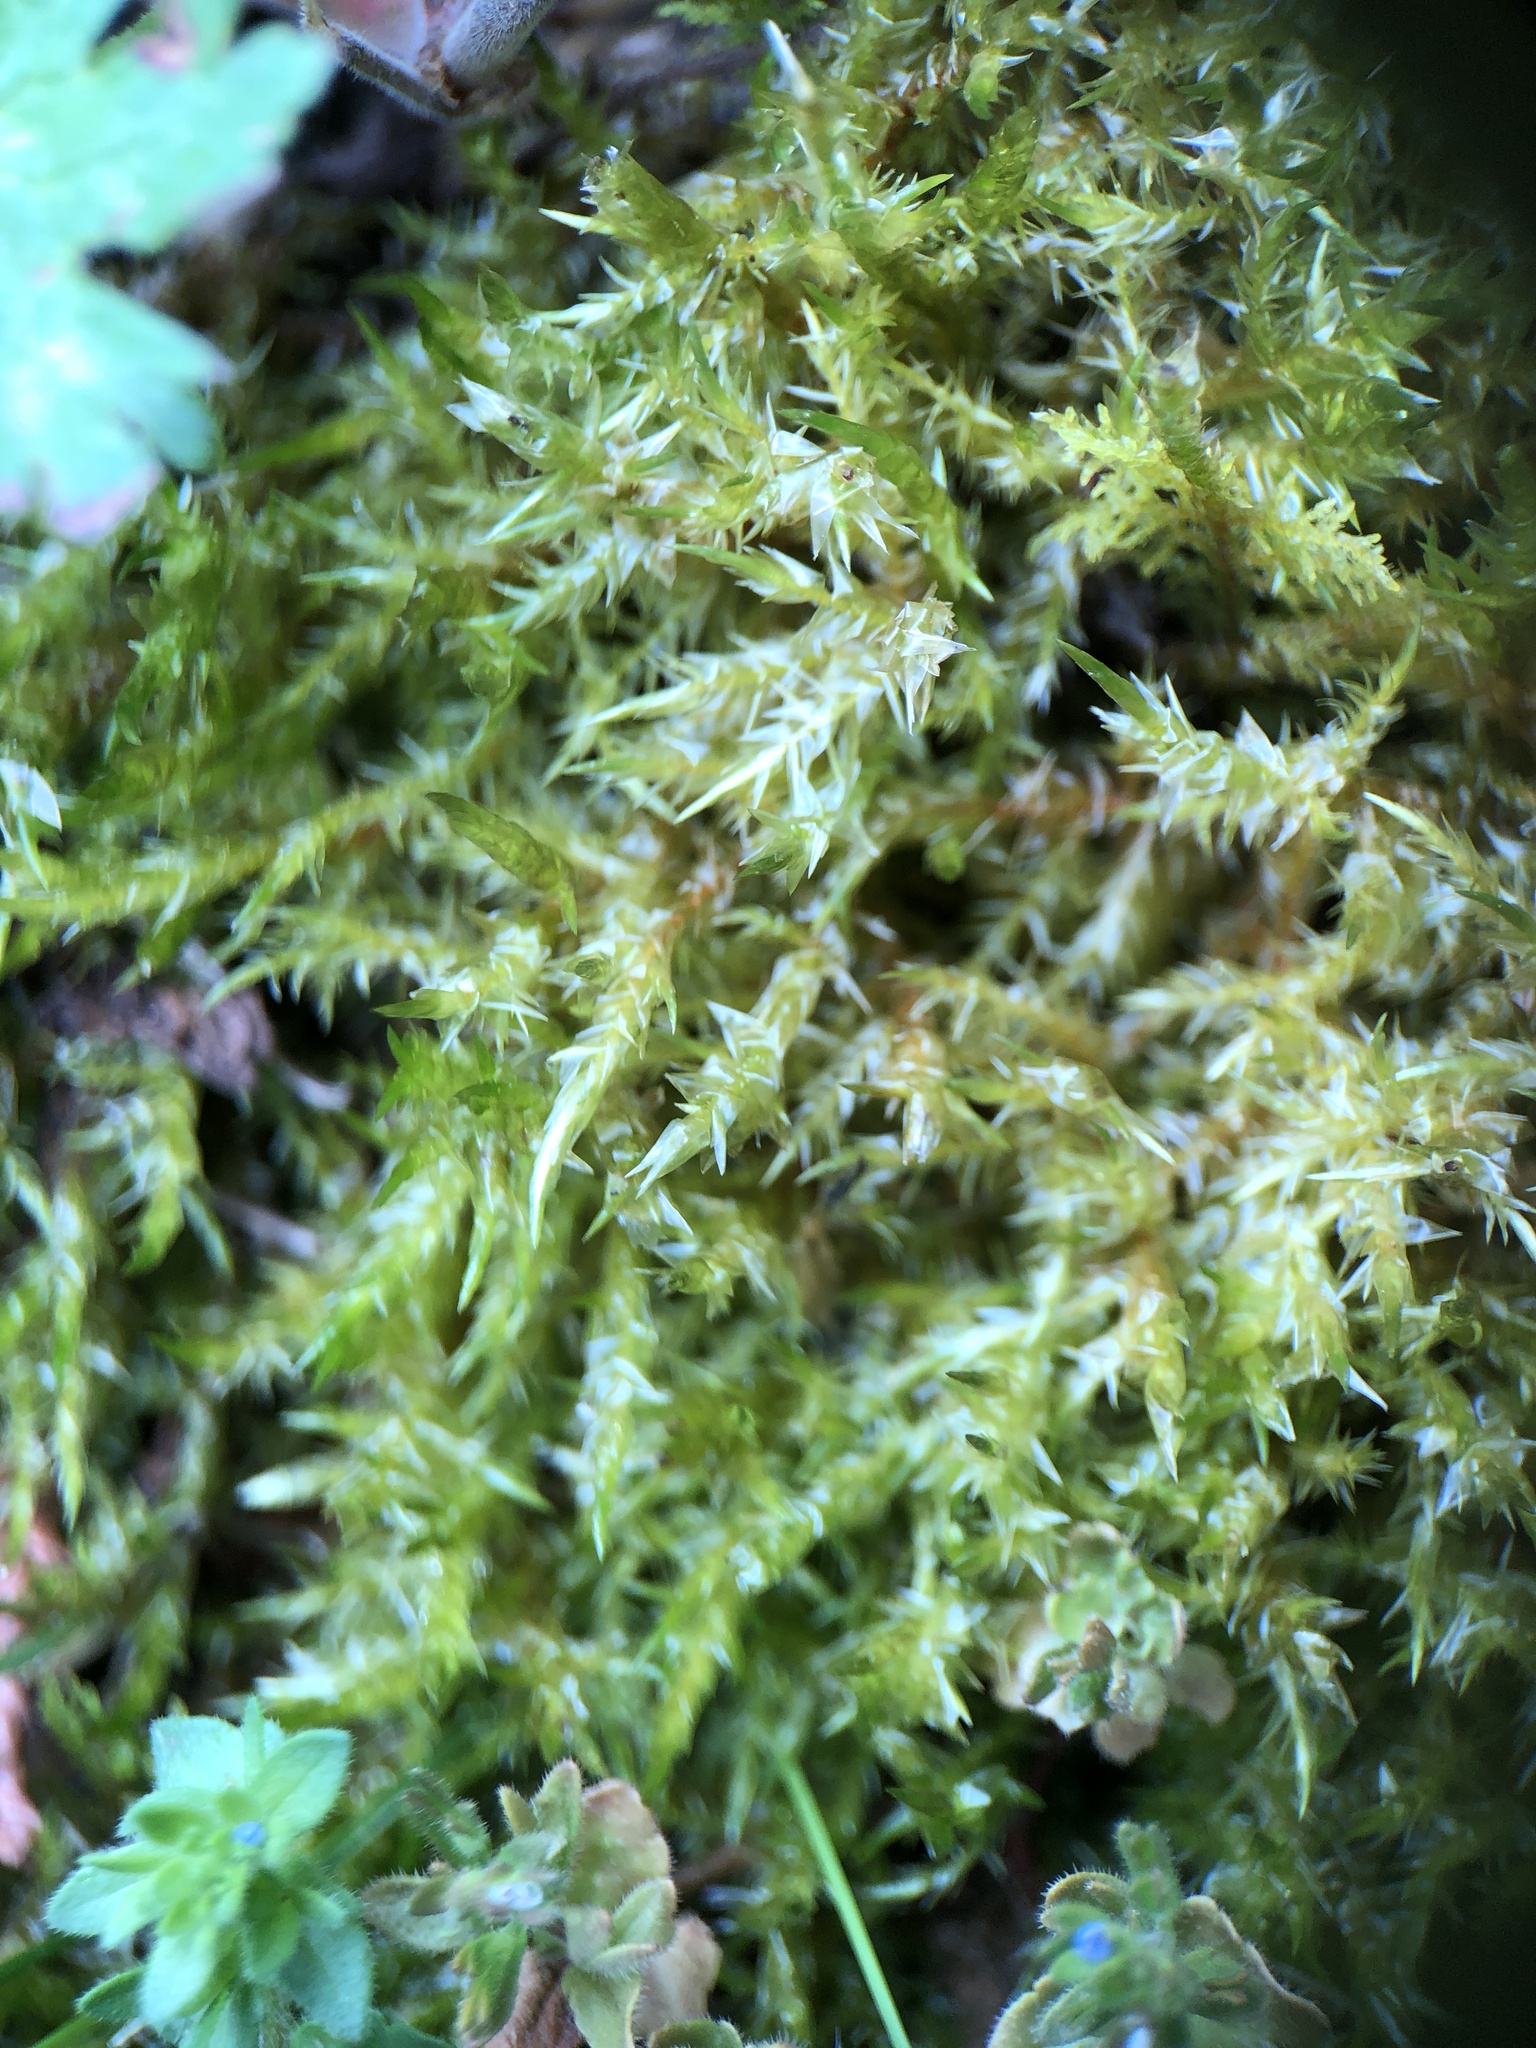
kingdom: Plantae
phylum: Bryophyta
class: Bryopsida
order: Hypnales
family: Pylaisiaceae
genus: Calliergonella
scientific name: Calliergonella cuspidata
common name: Common large wetland moss
